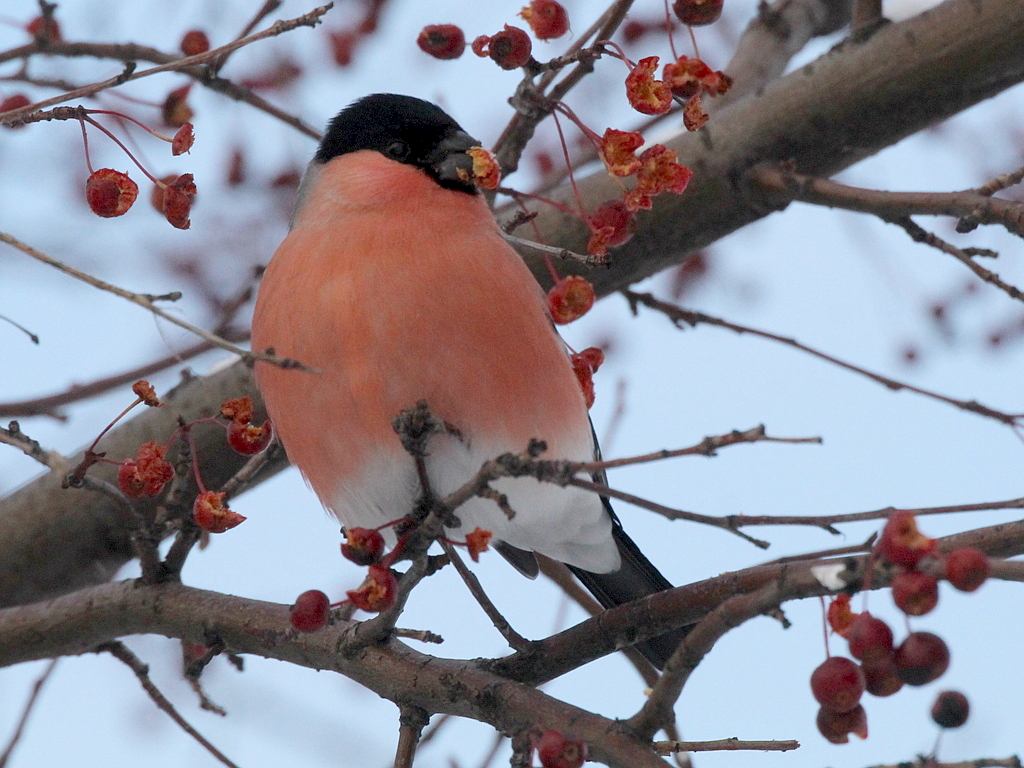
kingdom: Animalia
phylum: Chordata
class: Aves
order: Passeriformes
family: Fringillidae
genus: Pyrrhula
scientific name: Pyrrhula pyrrhula
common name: Eurasian bullfinch
